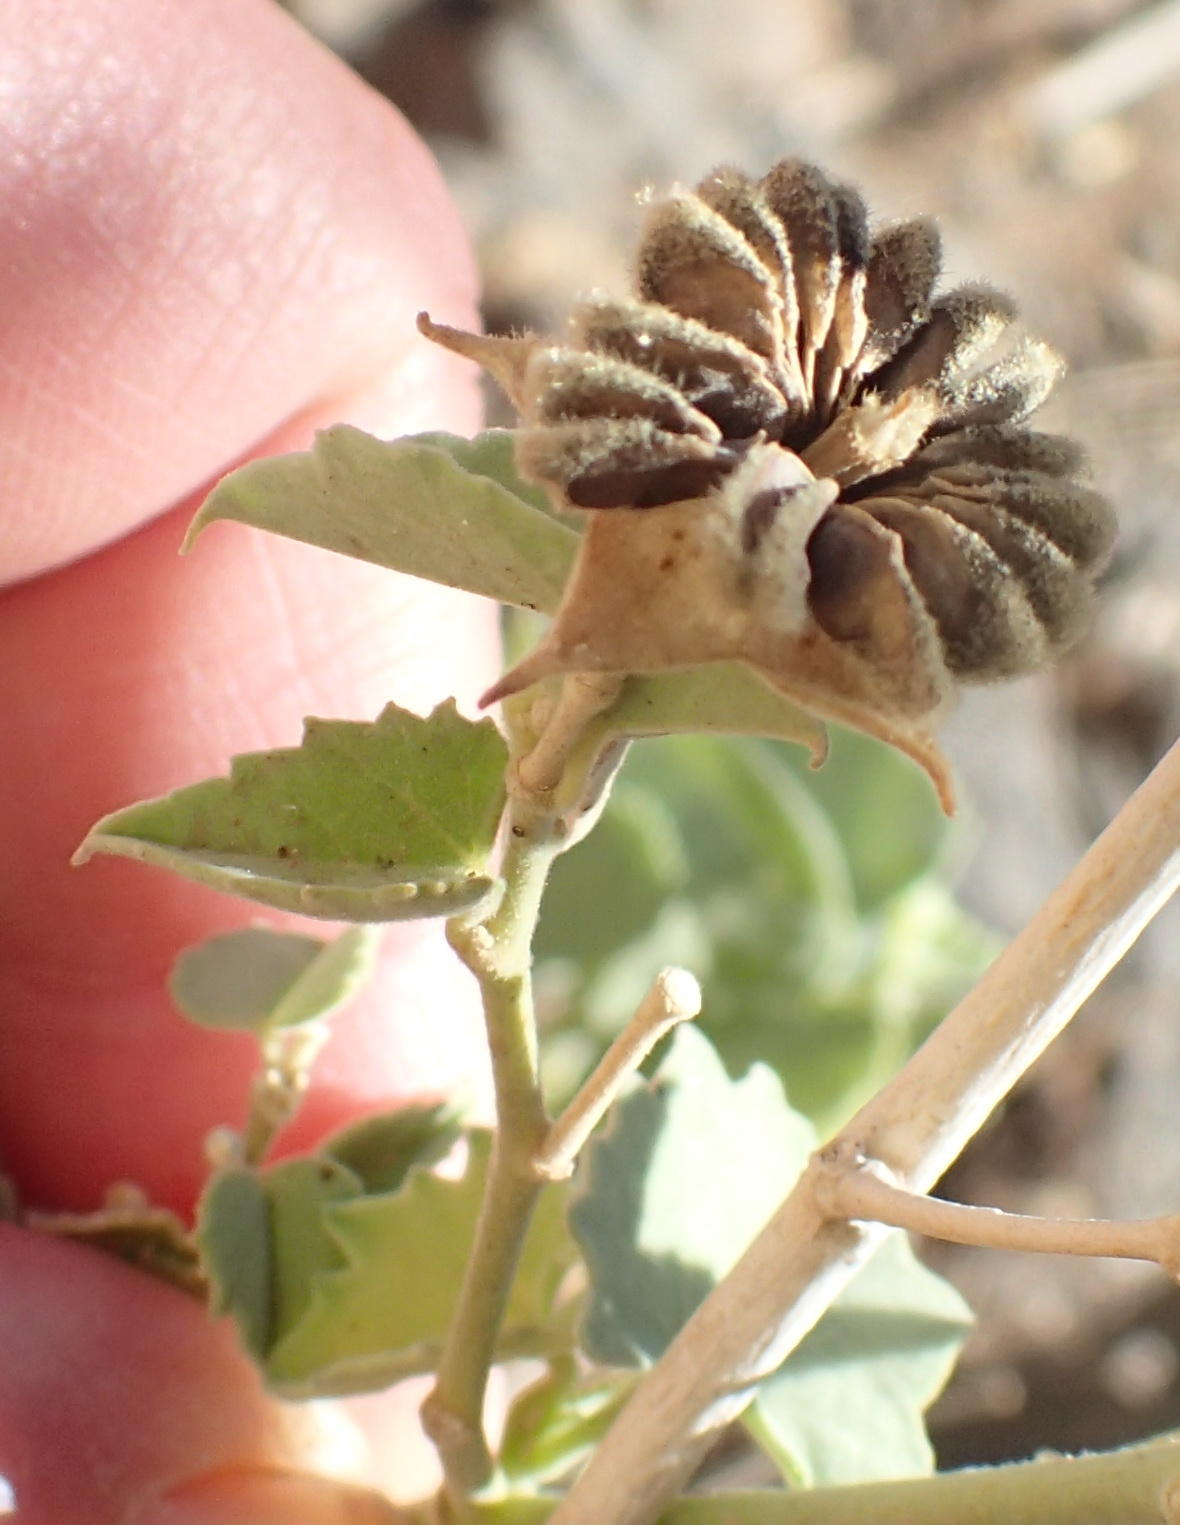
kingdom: Plantae
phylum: Tracheophyta
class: Magnoliopsida
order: Malvales
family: Malvaceae
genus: Abutilon
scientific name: Abutilon pycnodon
